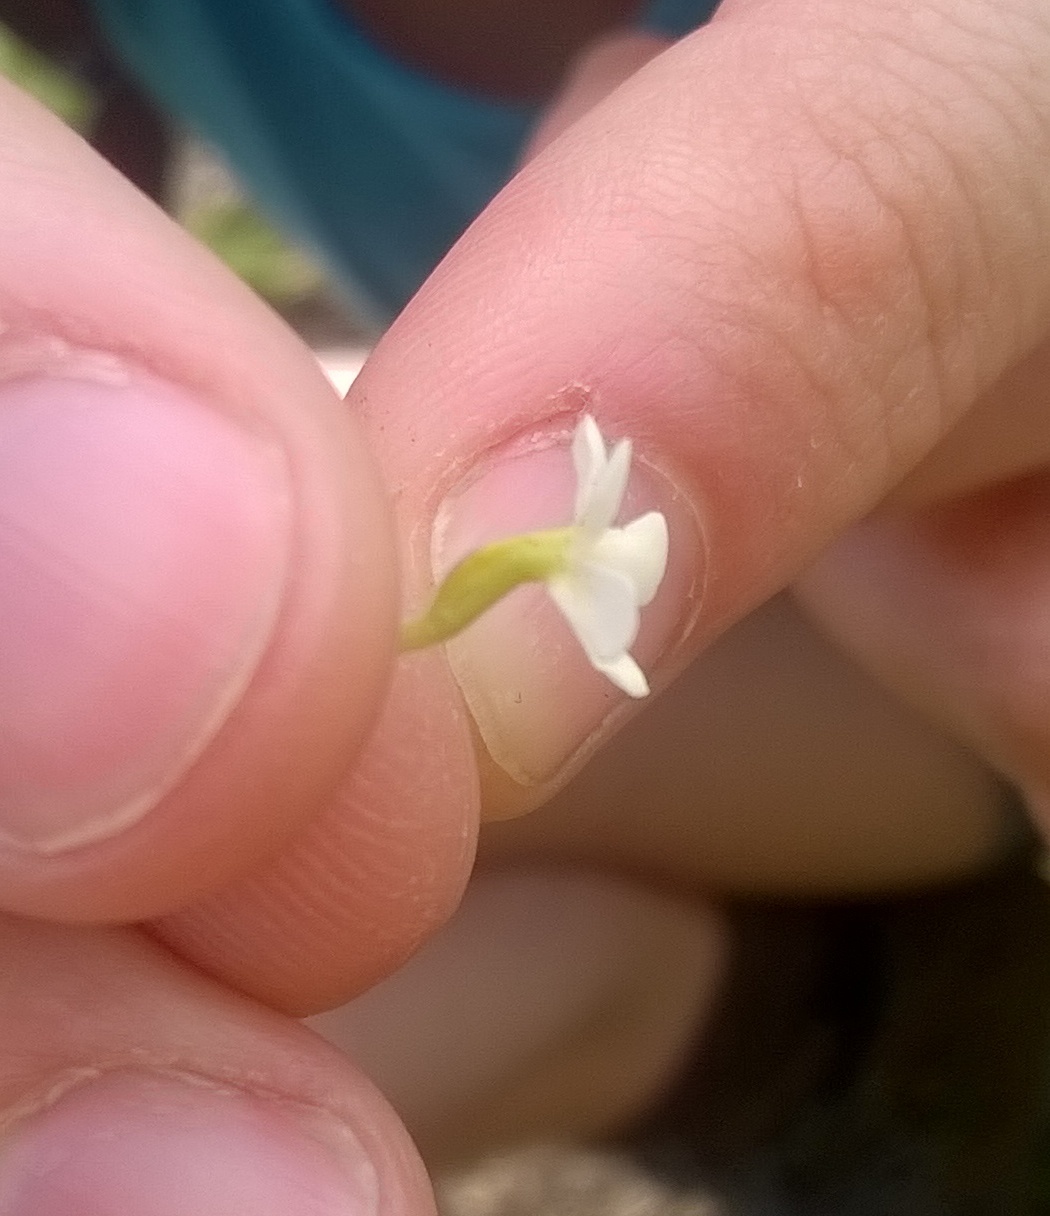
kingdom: Plantae
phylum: Tracheophyta
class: Magnoliopsida
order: Lamiales
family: Scrophulariaceae
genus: Manulea
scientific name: Manulea buchneroides
